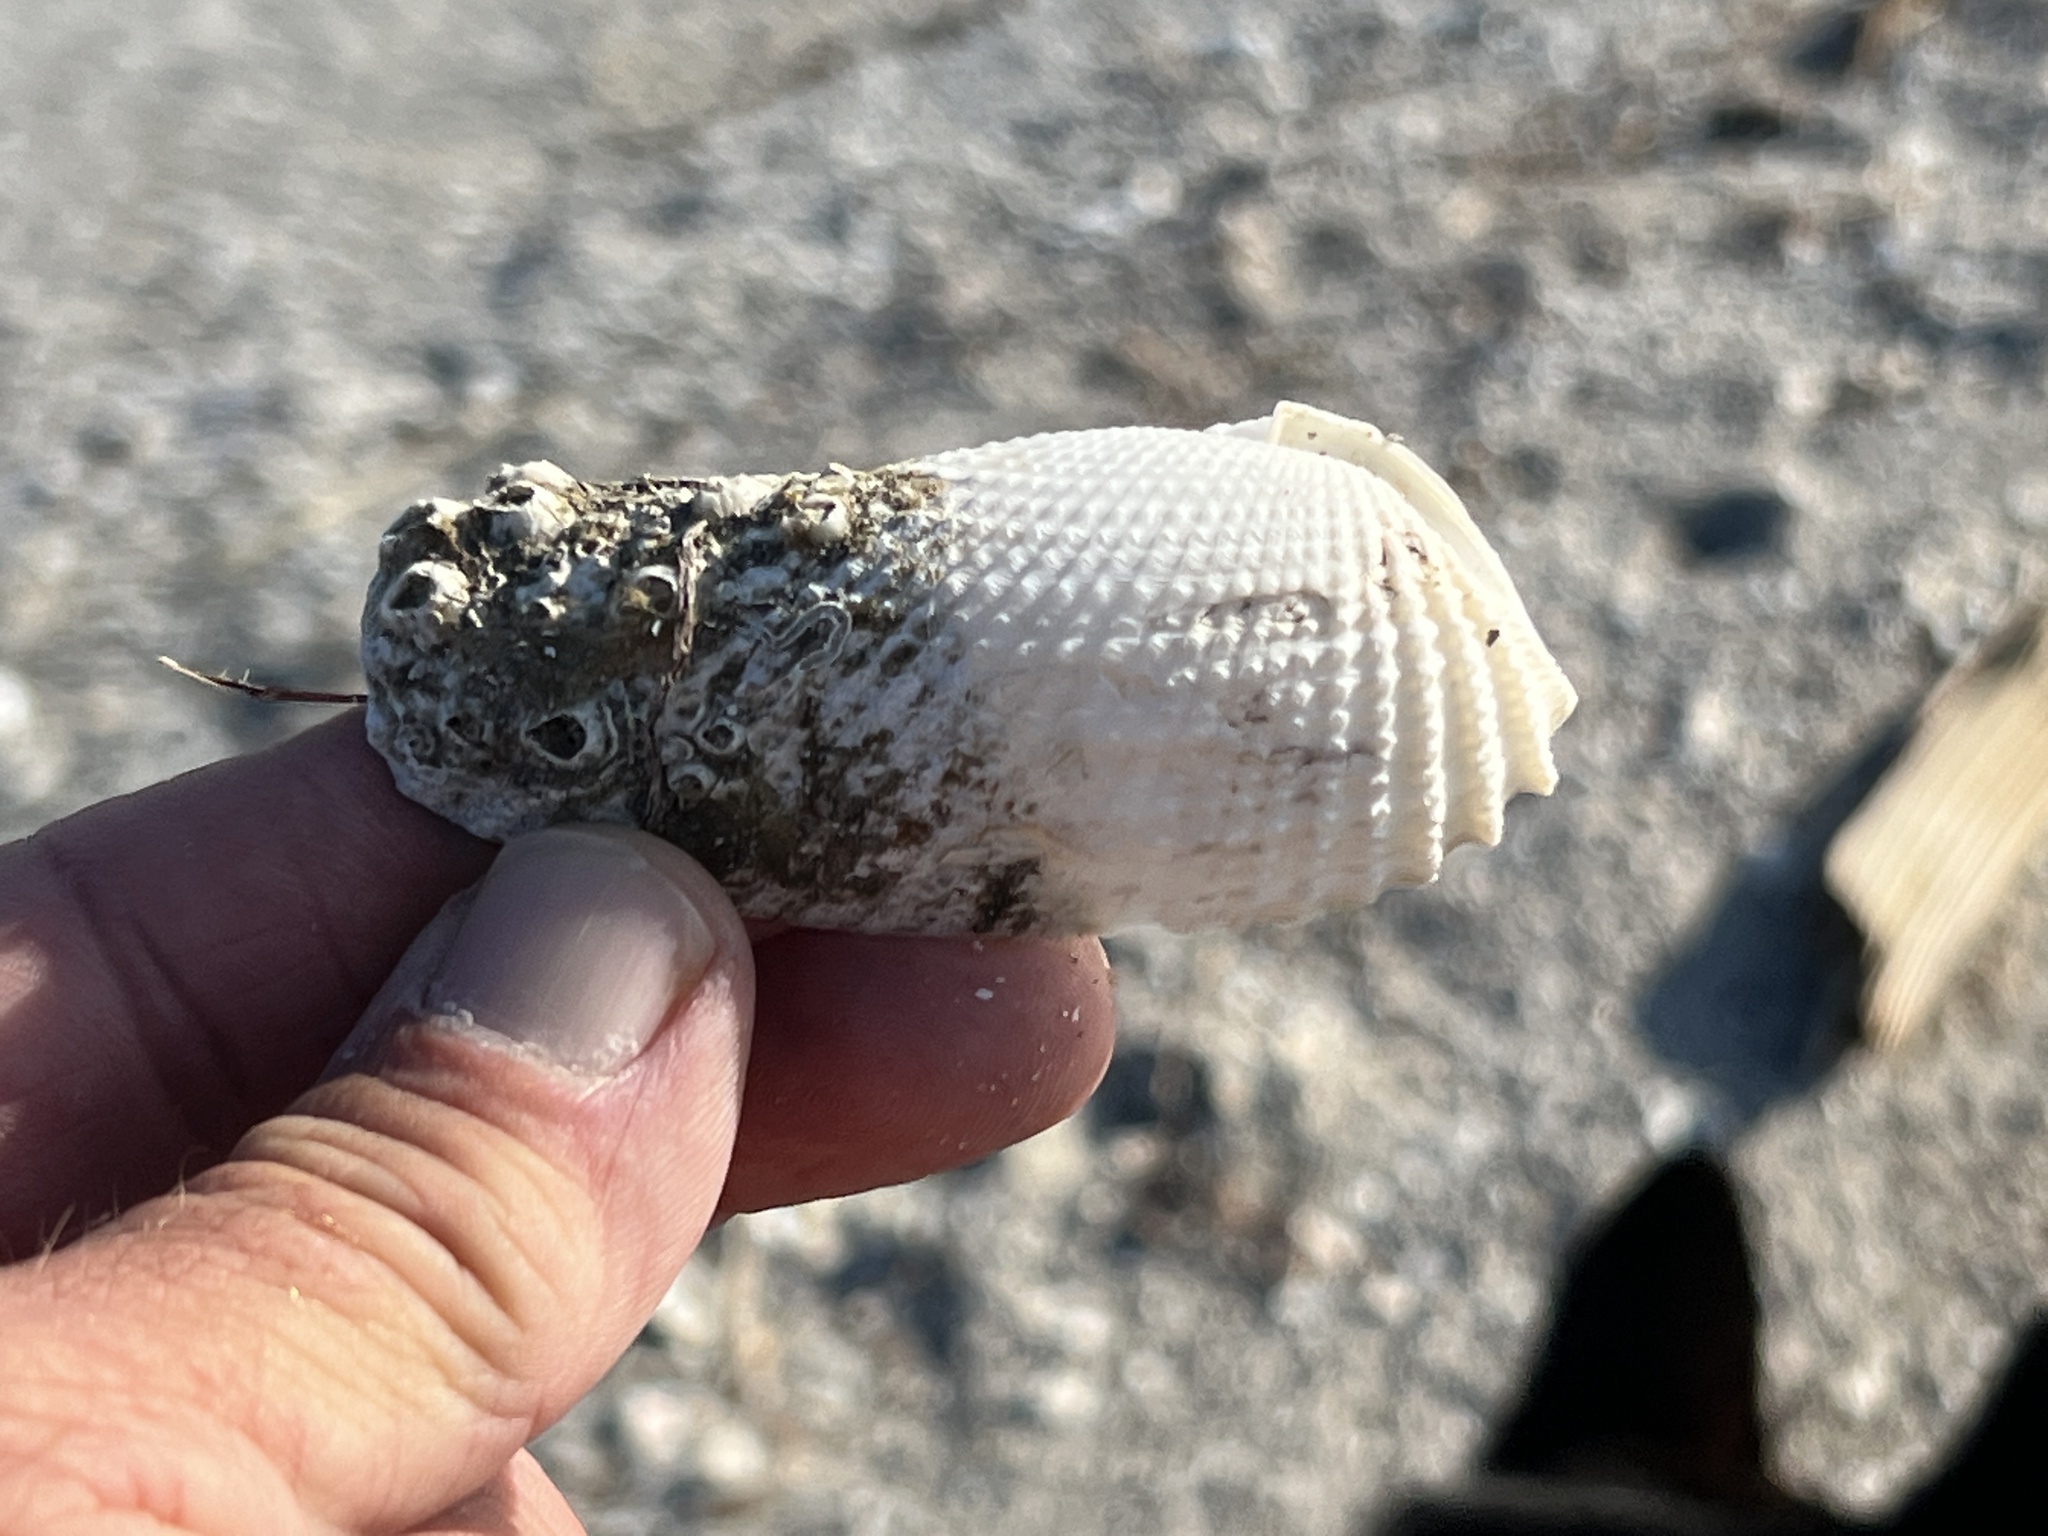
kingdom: Animalia
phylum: Mollusca
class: Bivalvia
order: Myida
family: Pholadidae
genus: Cyrtopleura
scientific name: Cyrtopleura costata
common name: Angel wing
